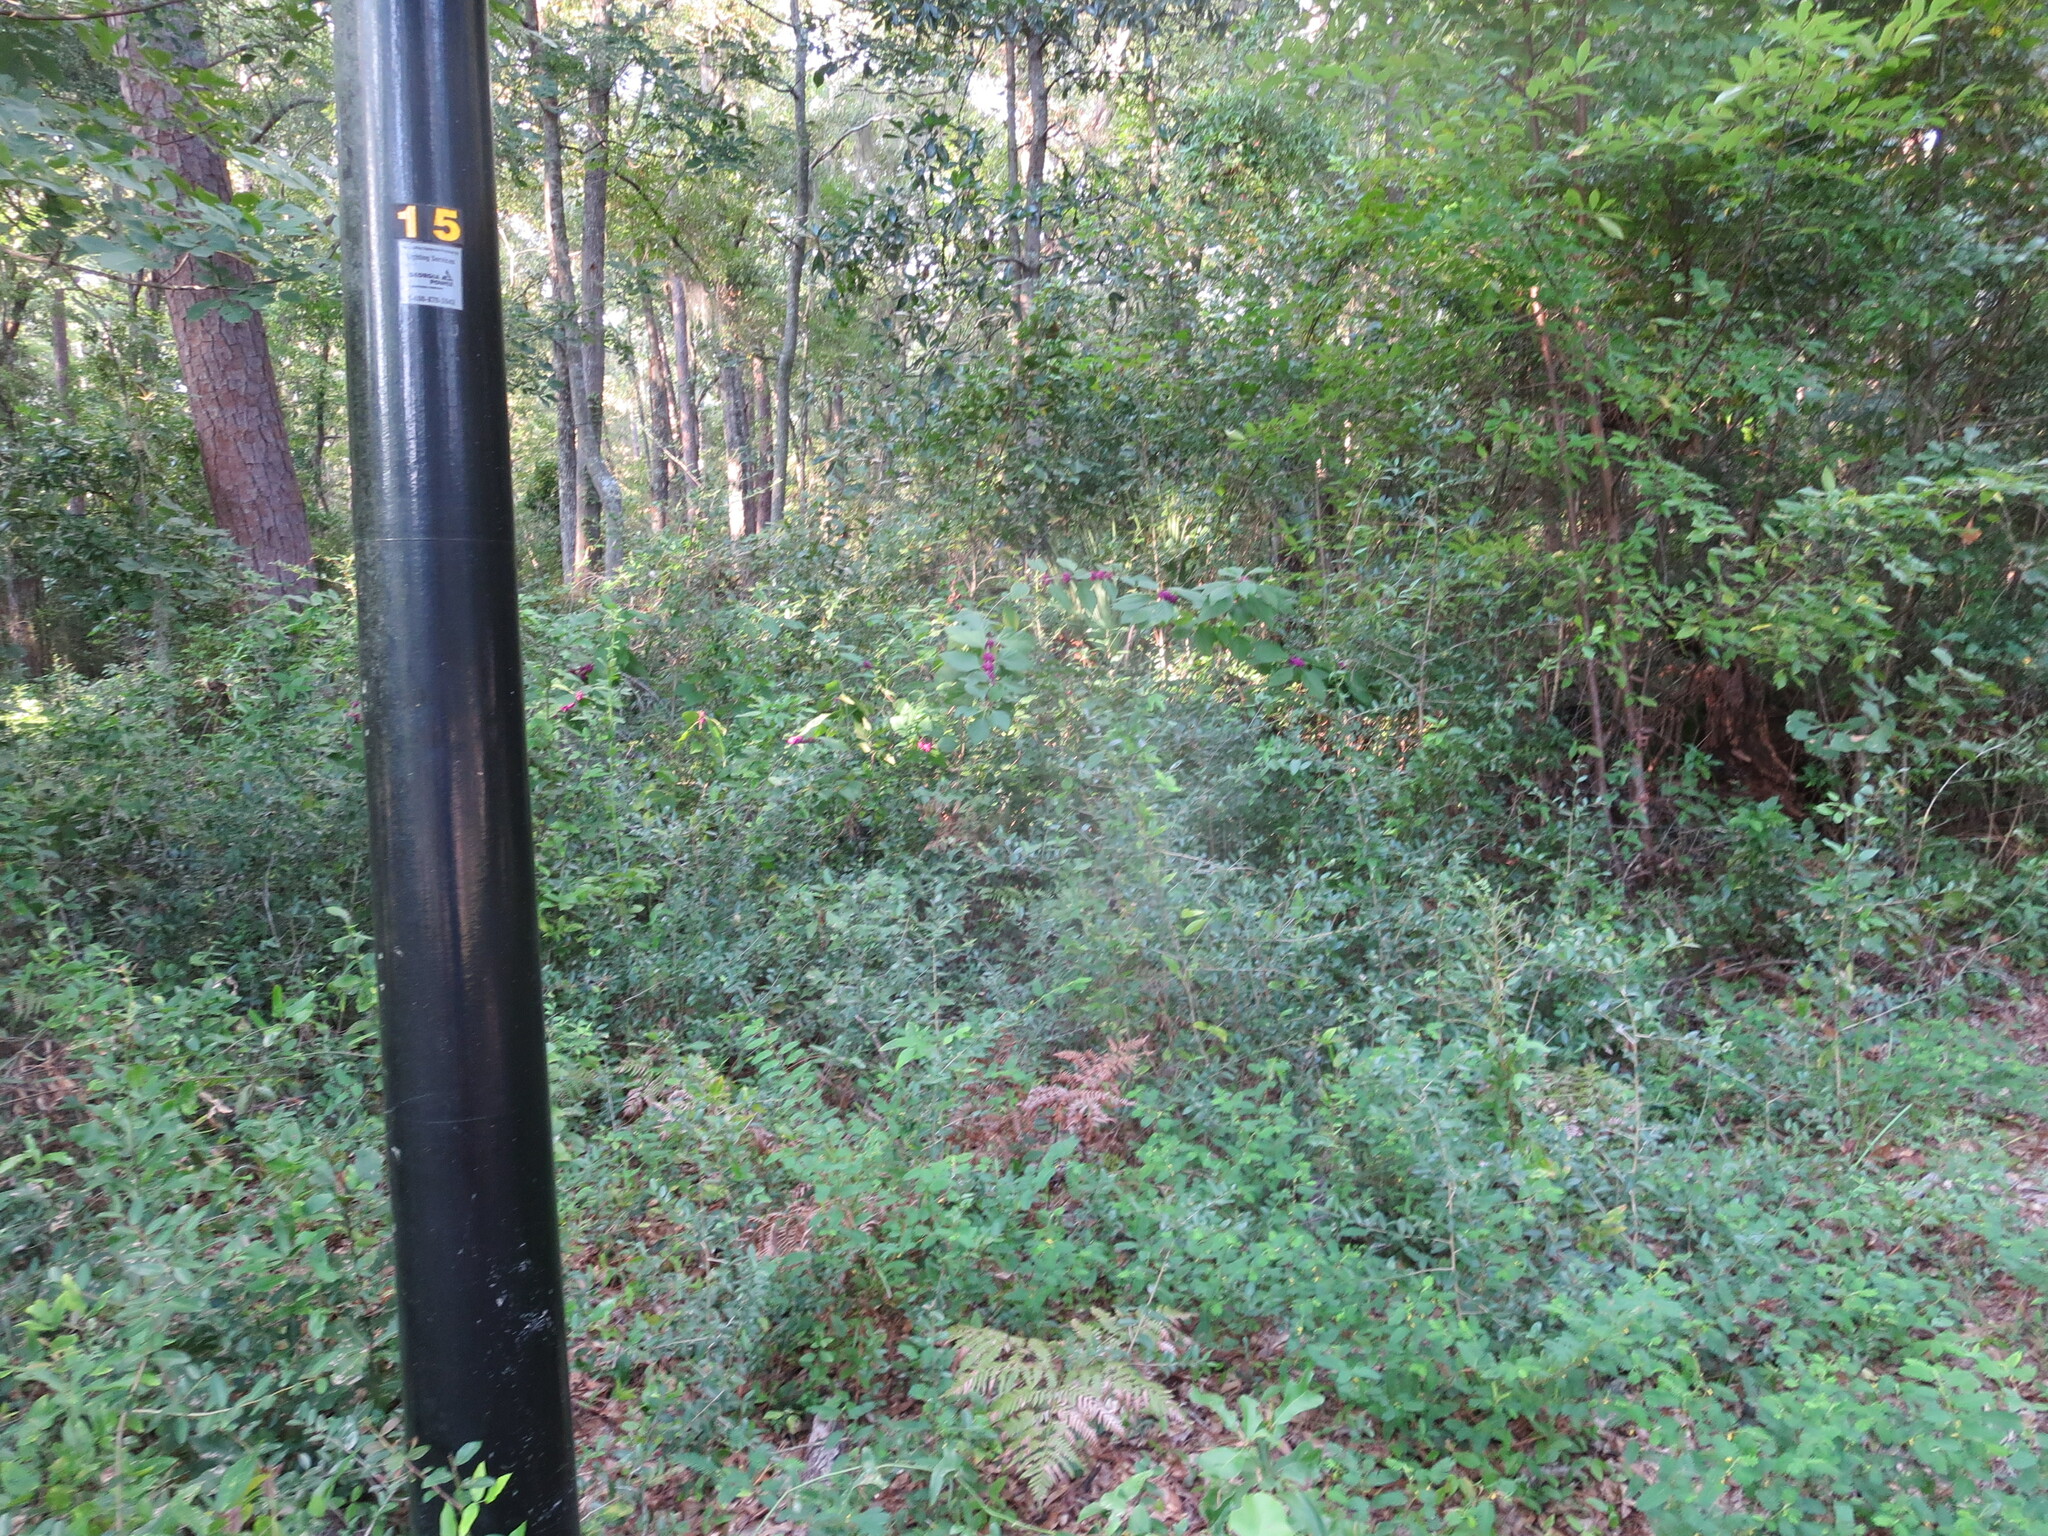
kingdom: Plantae
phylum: Tracheophyta
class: Magnoliopsida
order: Lamiales
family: Lamiaceae
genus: Callicarpa
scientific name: Callicarpa americana
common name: American beautyberry
